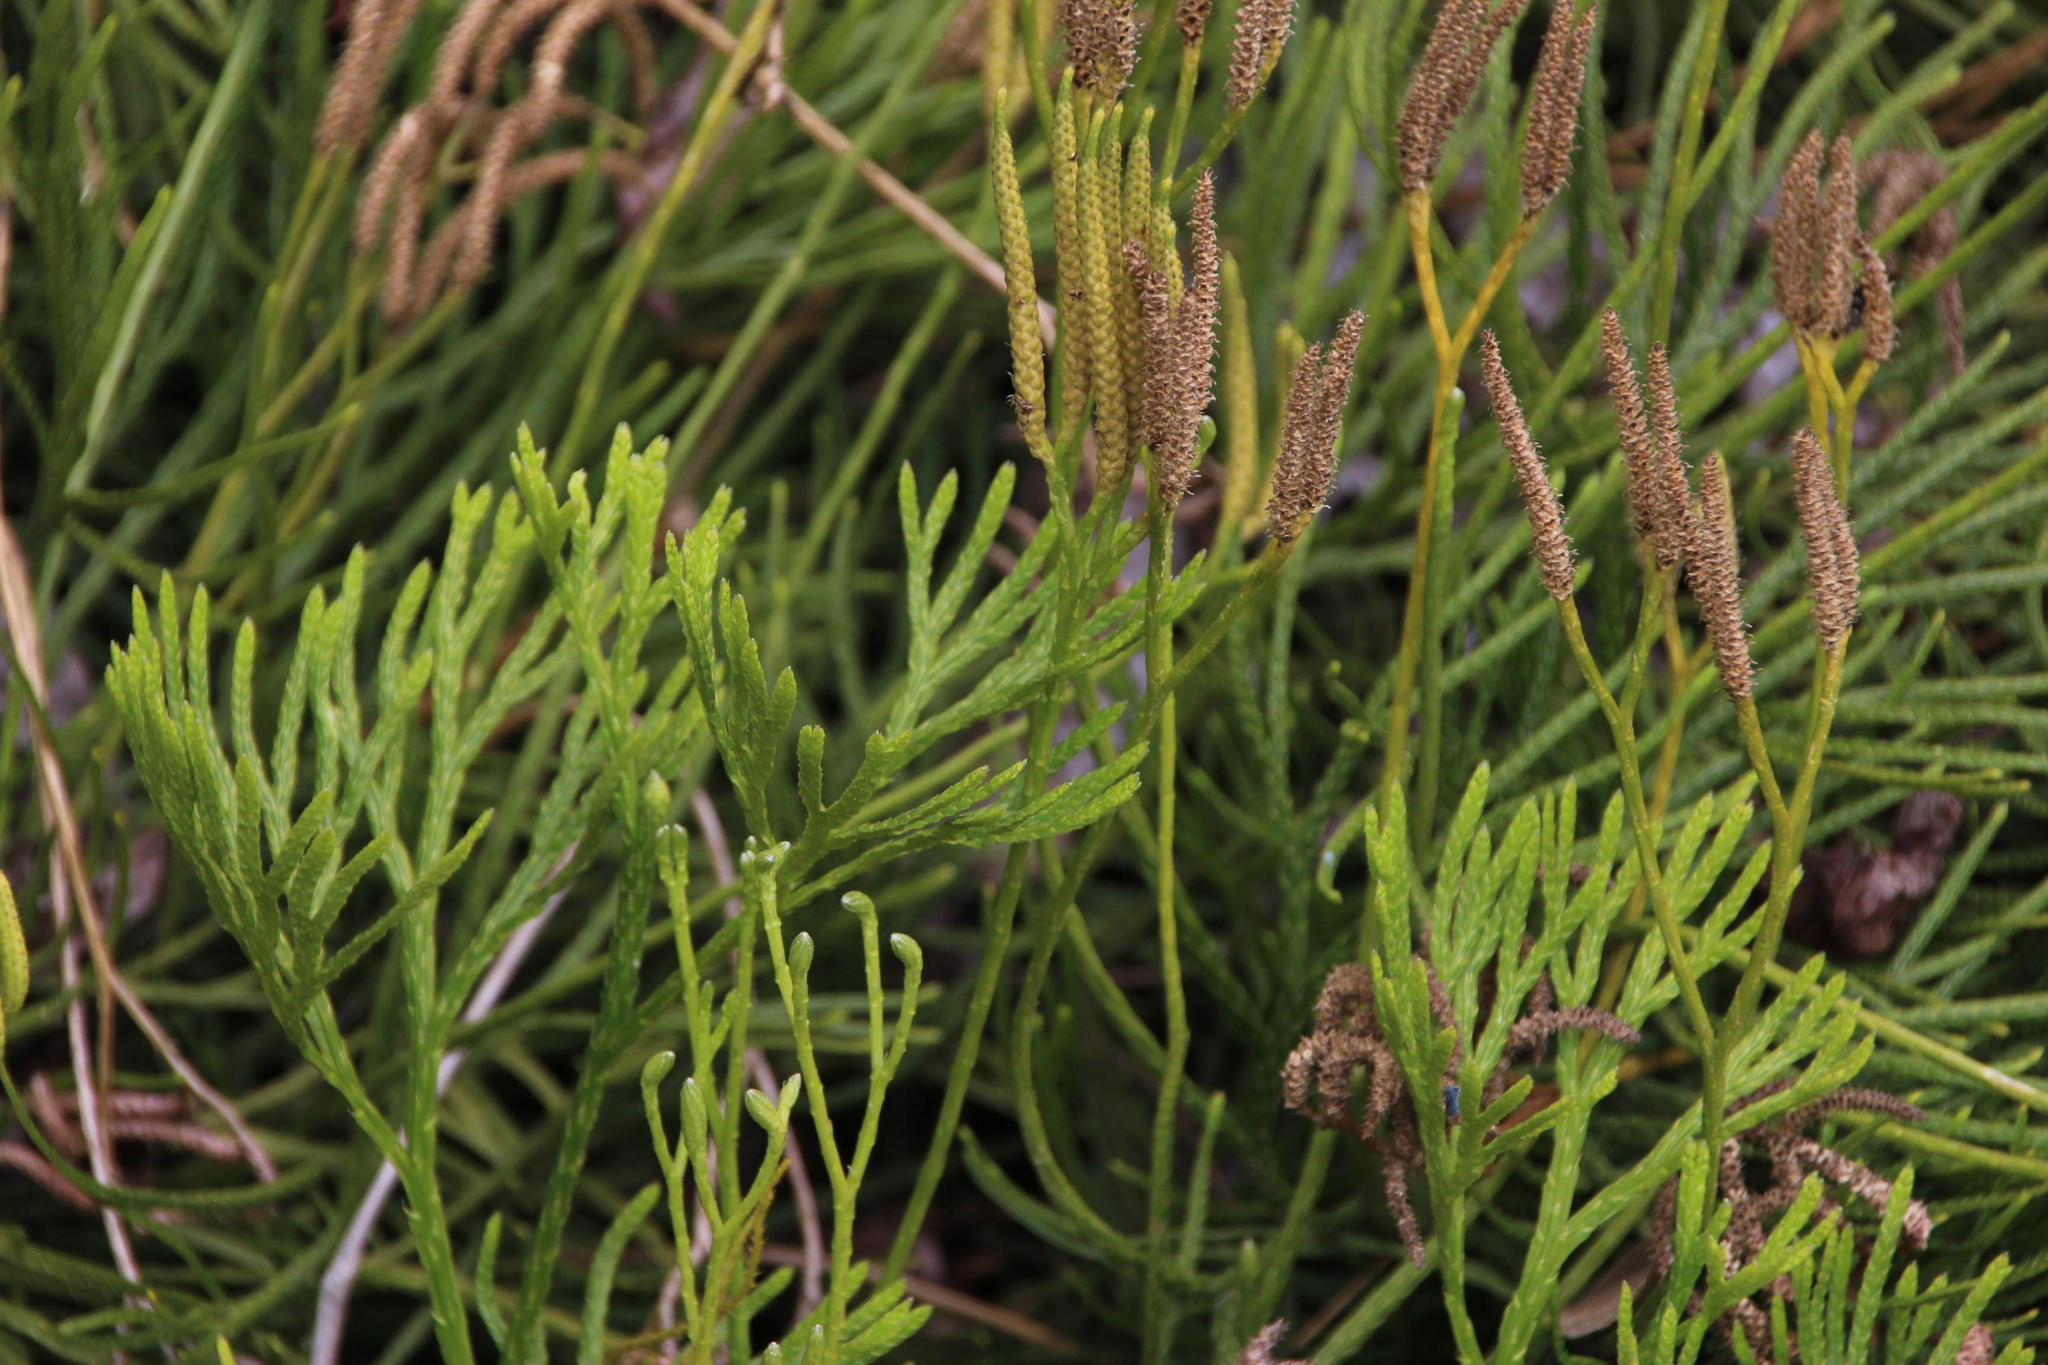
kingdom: Plantae
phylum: Tracheophyta
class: Lycopodiopsida
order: Lycopodiales
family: Lycopodiaceae
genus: Diphasiastrum
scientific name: Diphasiastrum thyoides
